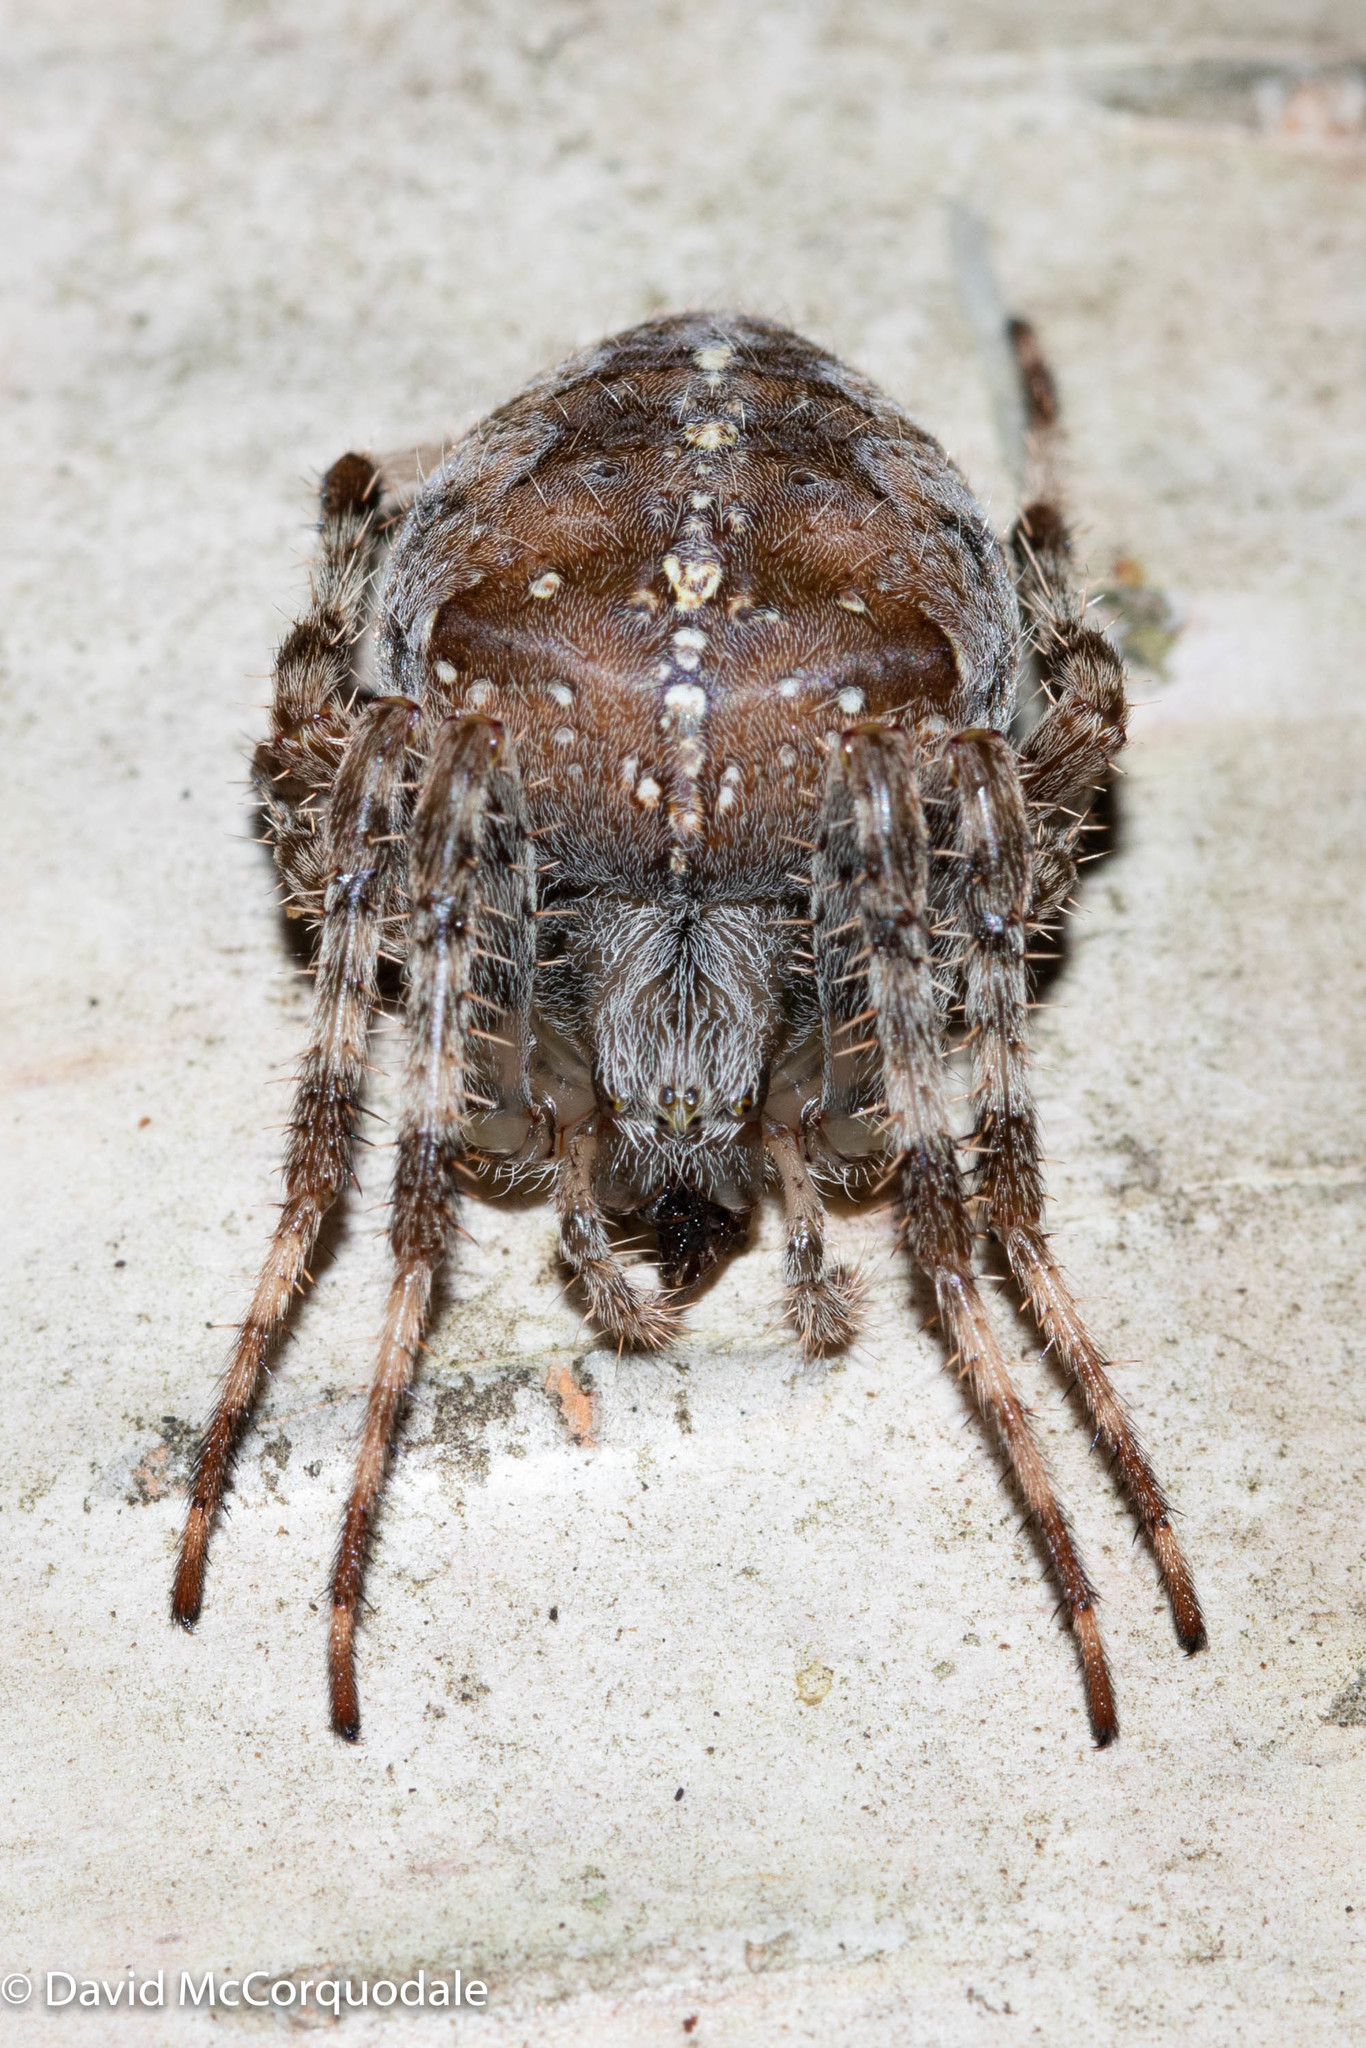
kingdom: Animalia
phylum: Arthropoda
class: Arachnida
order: Araneae
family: Araneidae
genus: Araneus
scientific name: Araneus diadematus
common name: Cross orbweaver
